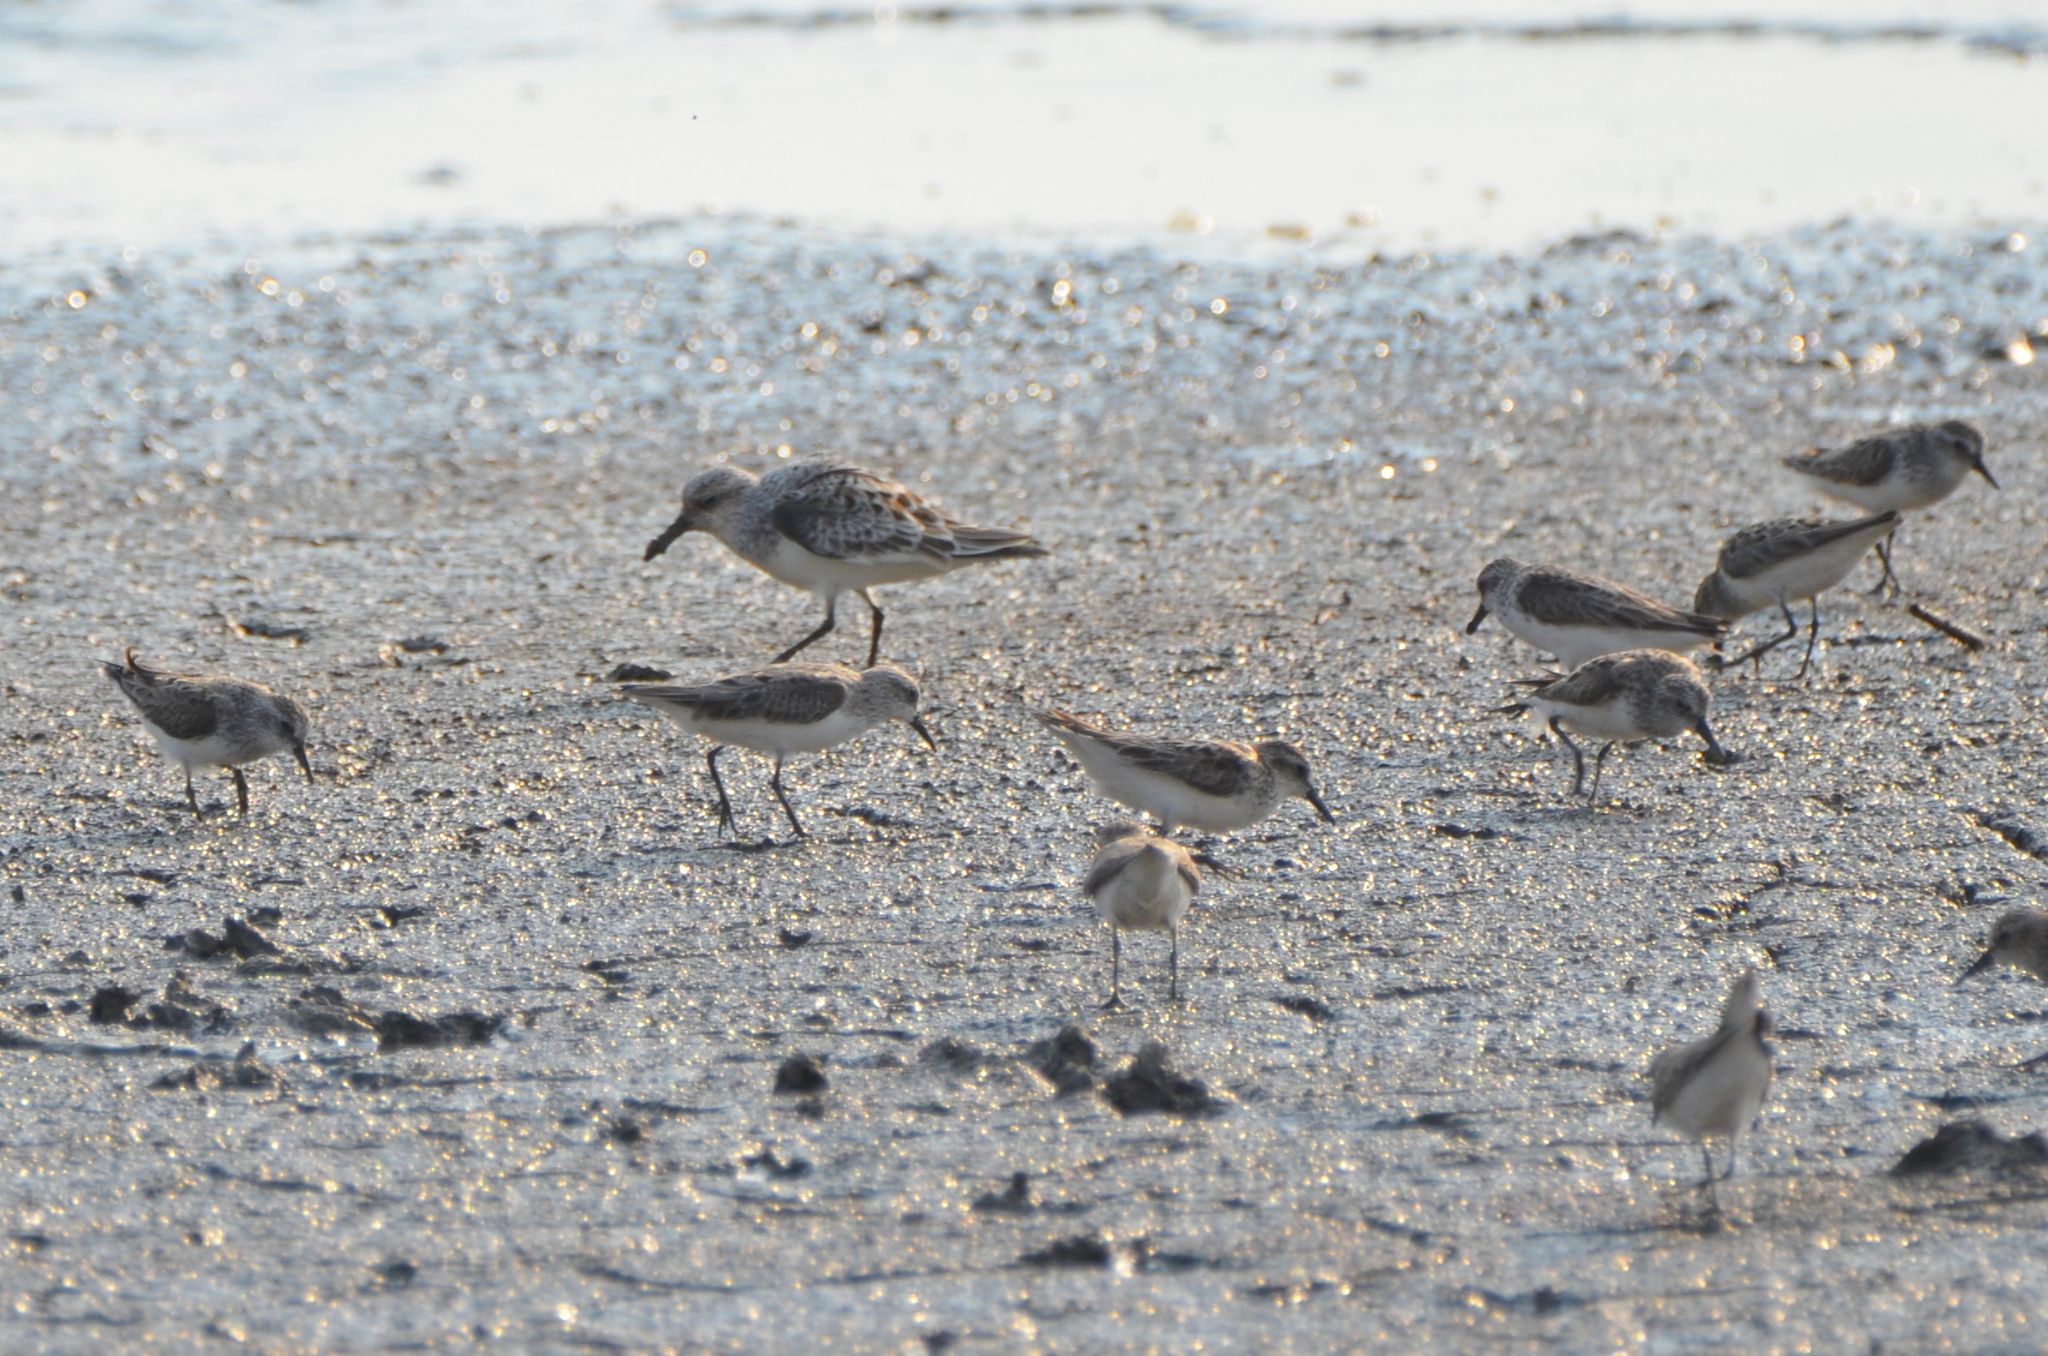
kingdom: Animalia
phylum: Chordata
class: Aves
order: Charadriiformes
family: Scolopacidae
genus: Calidris
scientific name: Calidris alba
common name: Sanderling
